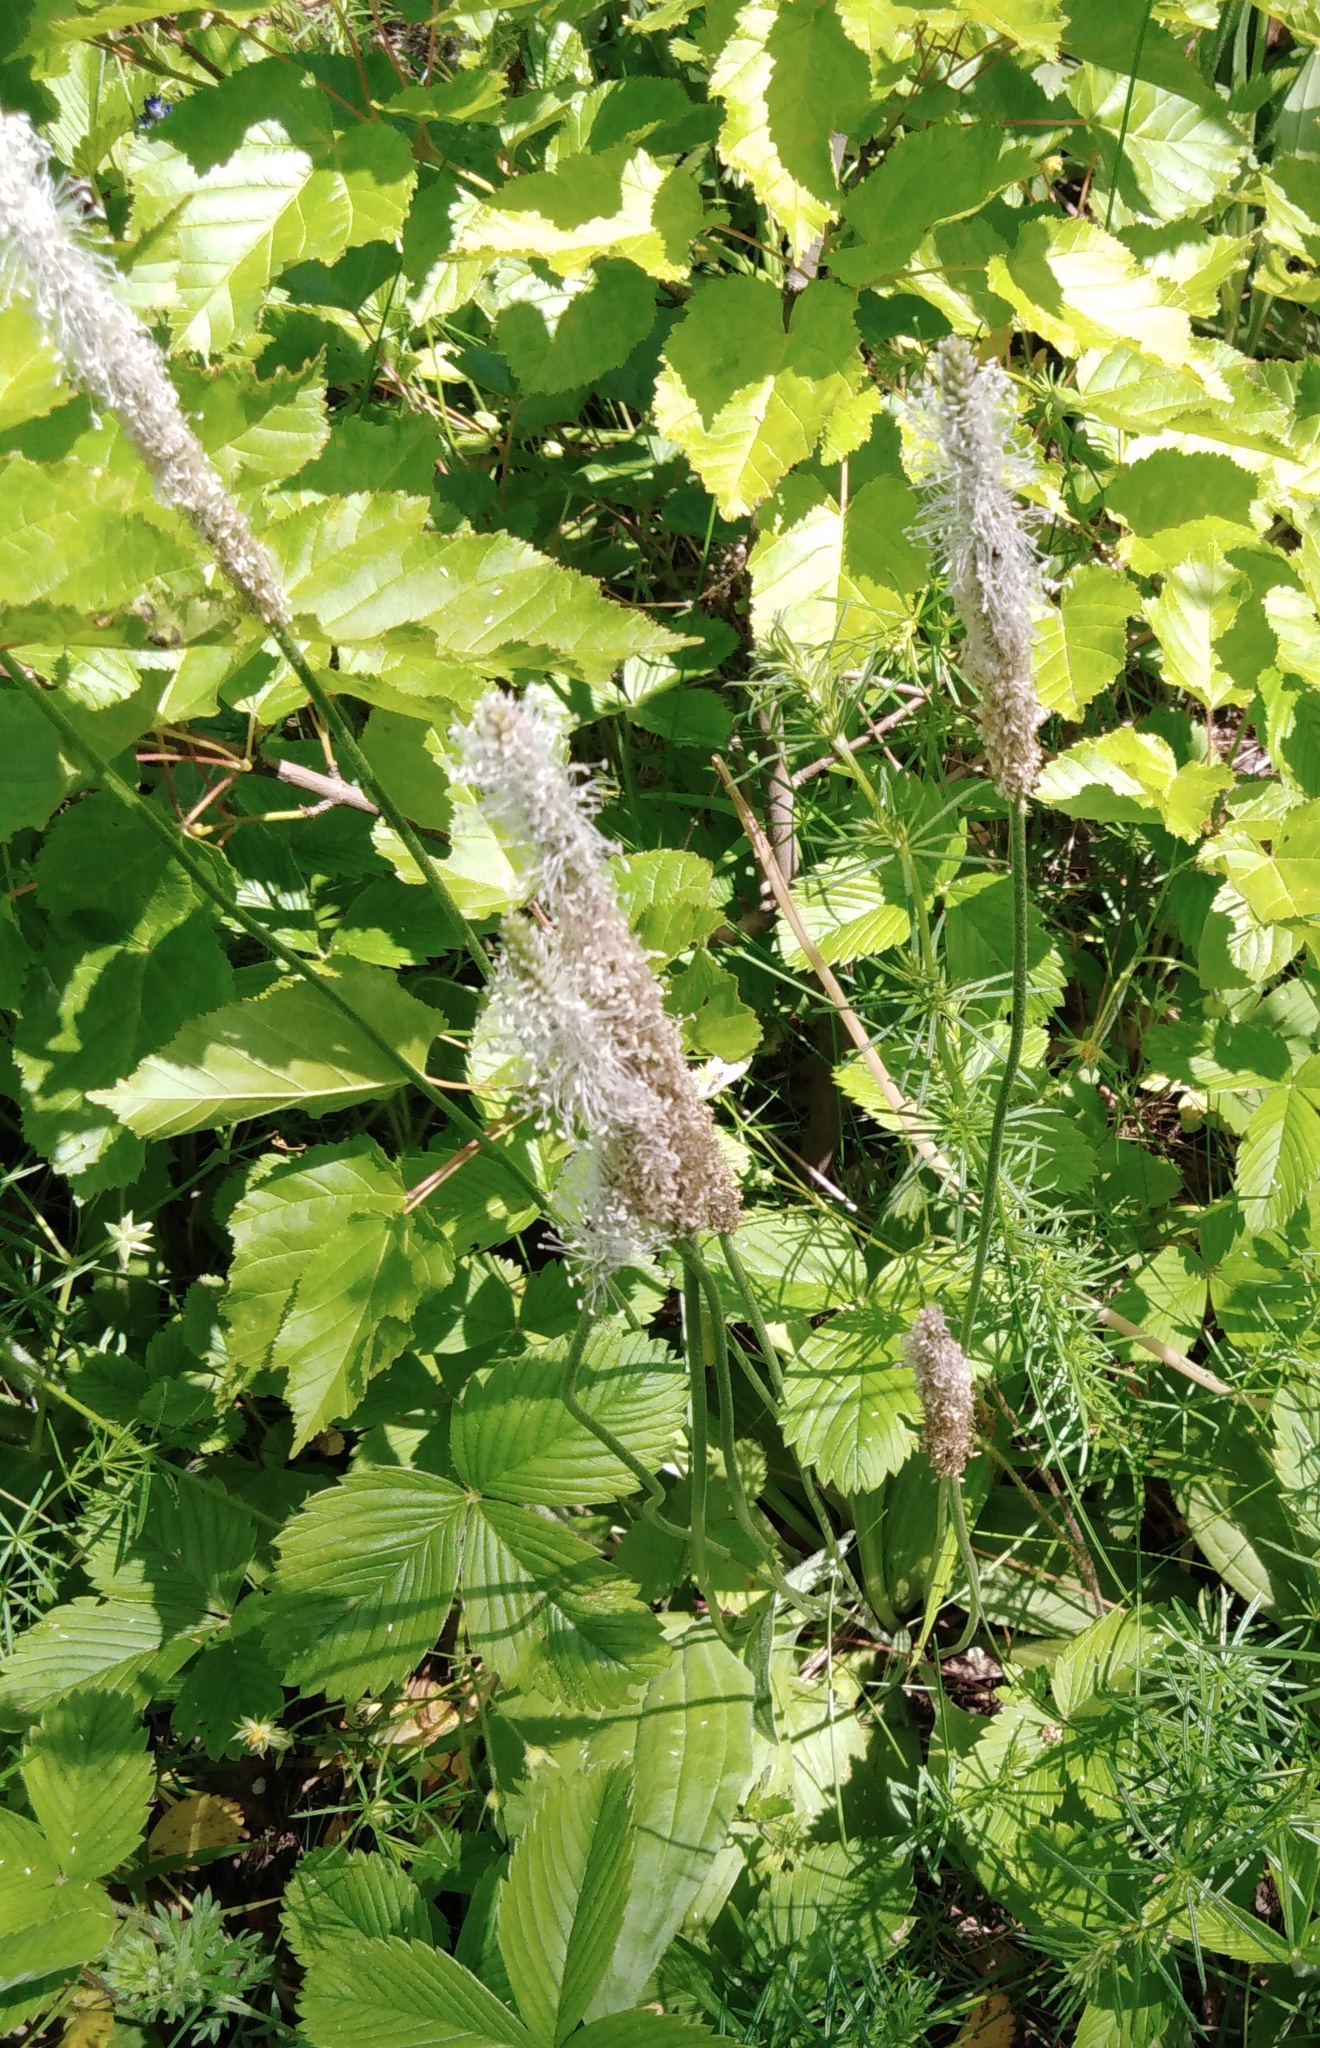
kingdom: Plantae
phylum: Tracheophyta
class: Magnoliopsida
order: Lamiales
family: Plantaginaceae
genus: Plantago
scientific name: Plantago urvillei
